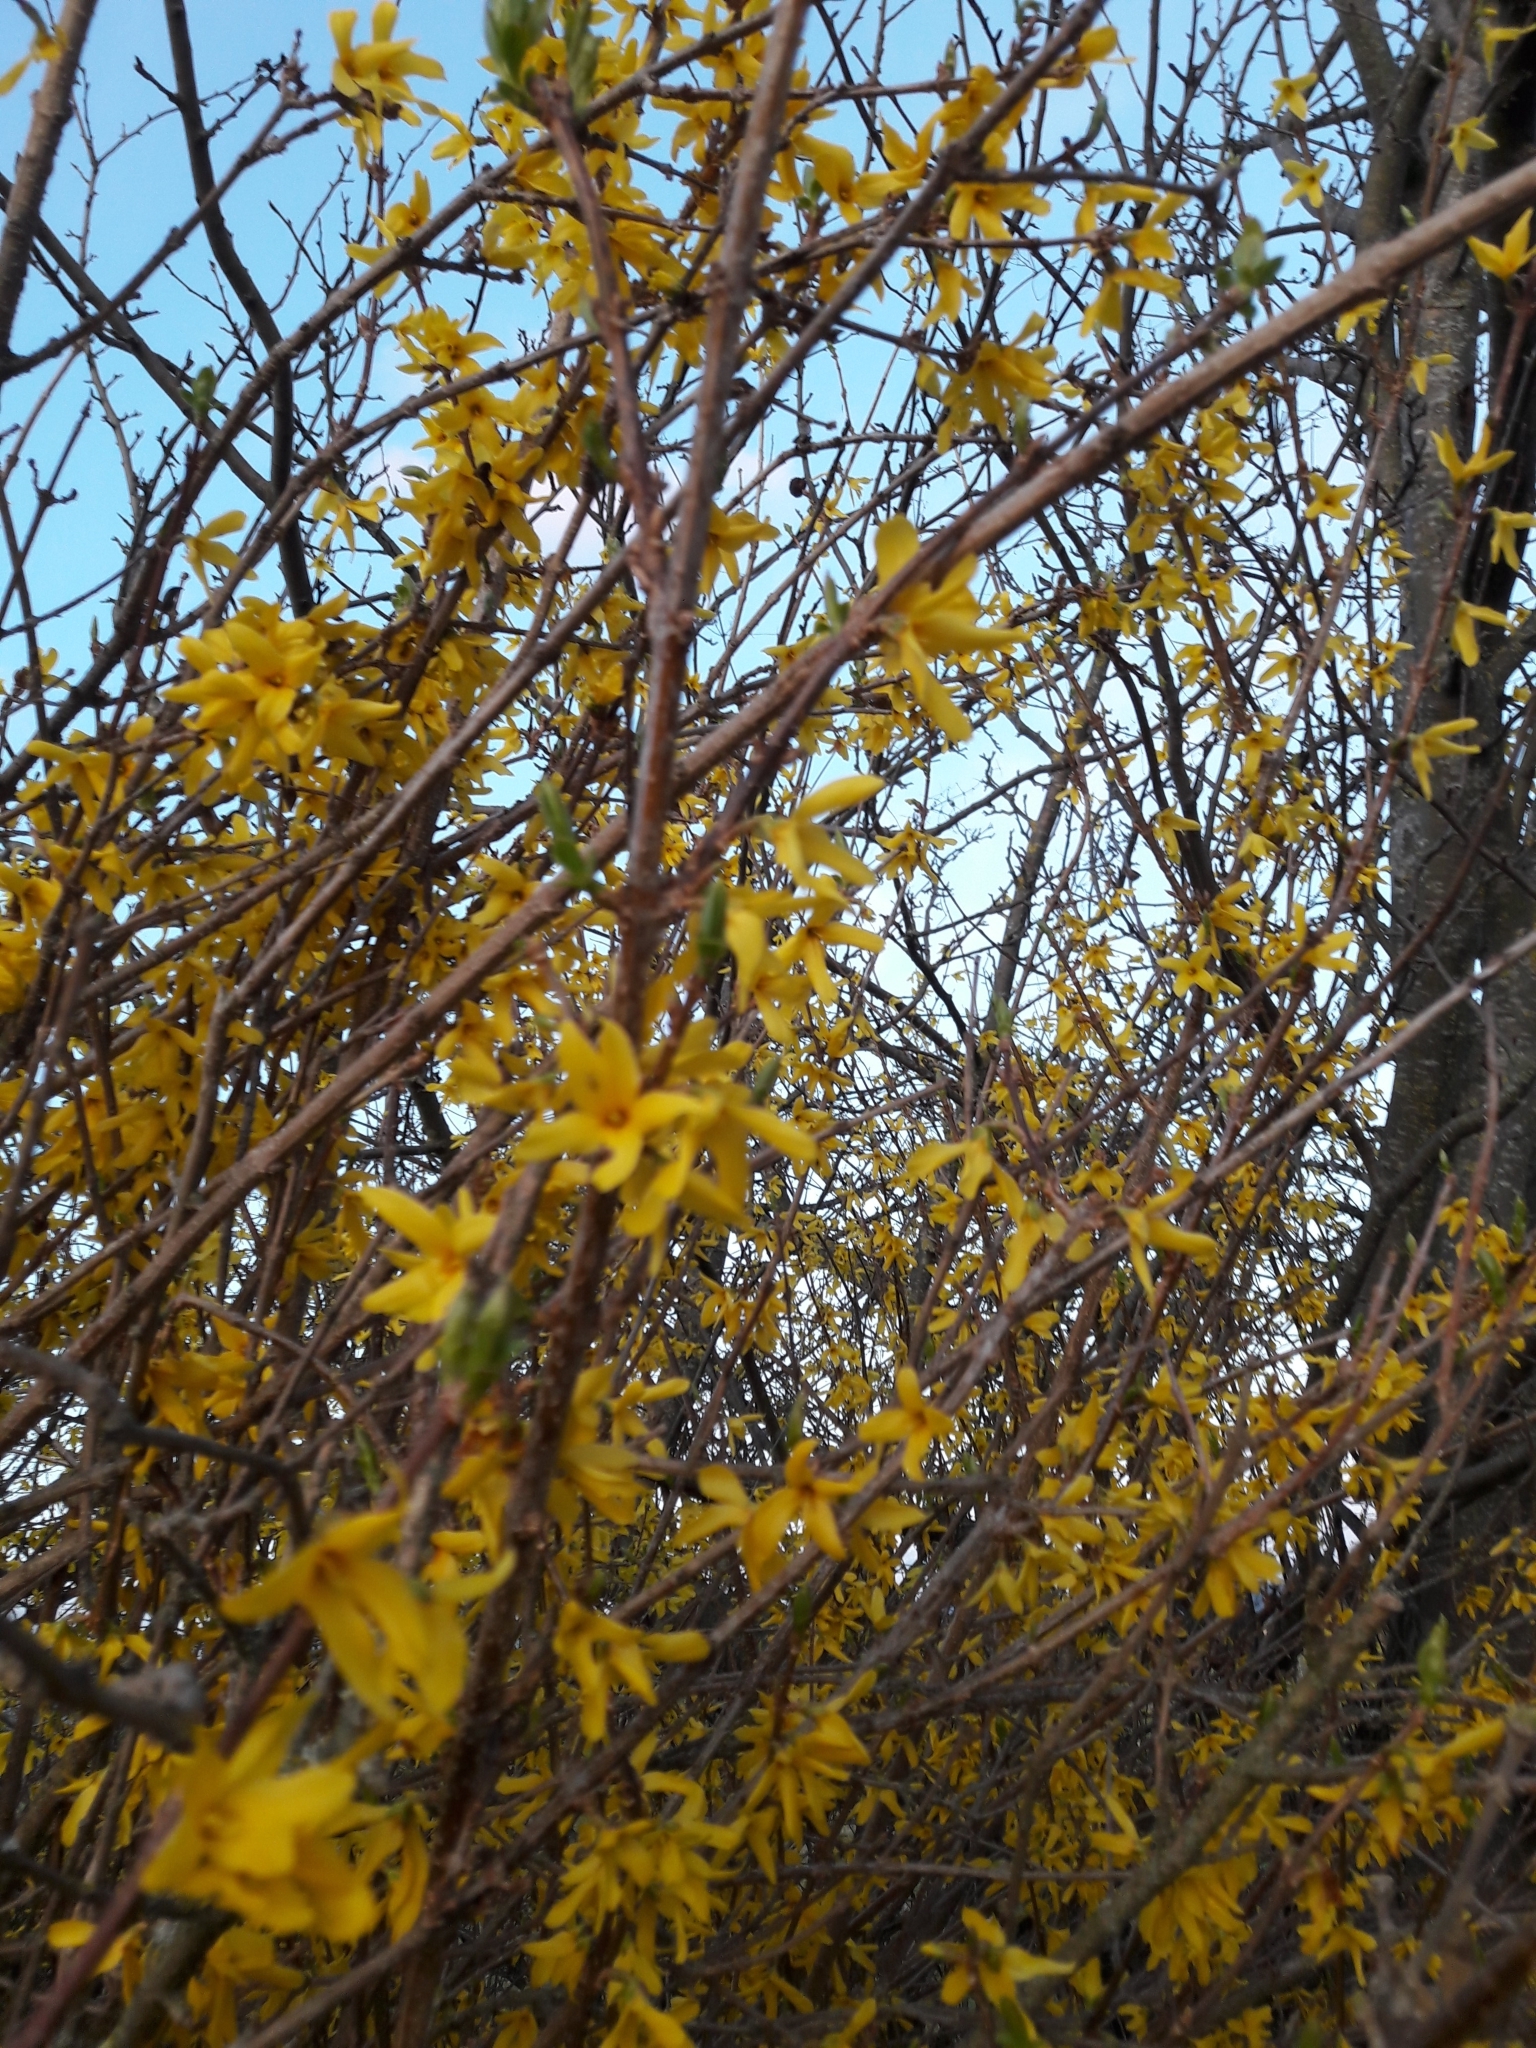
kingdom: Plantae
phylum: Tracheophyta
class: Magnoliopsida
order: Lamiales
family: Oleaceae
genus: Forsythia
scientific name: Forsythia intermedia
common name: Forsythia
